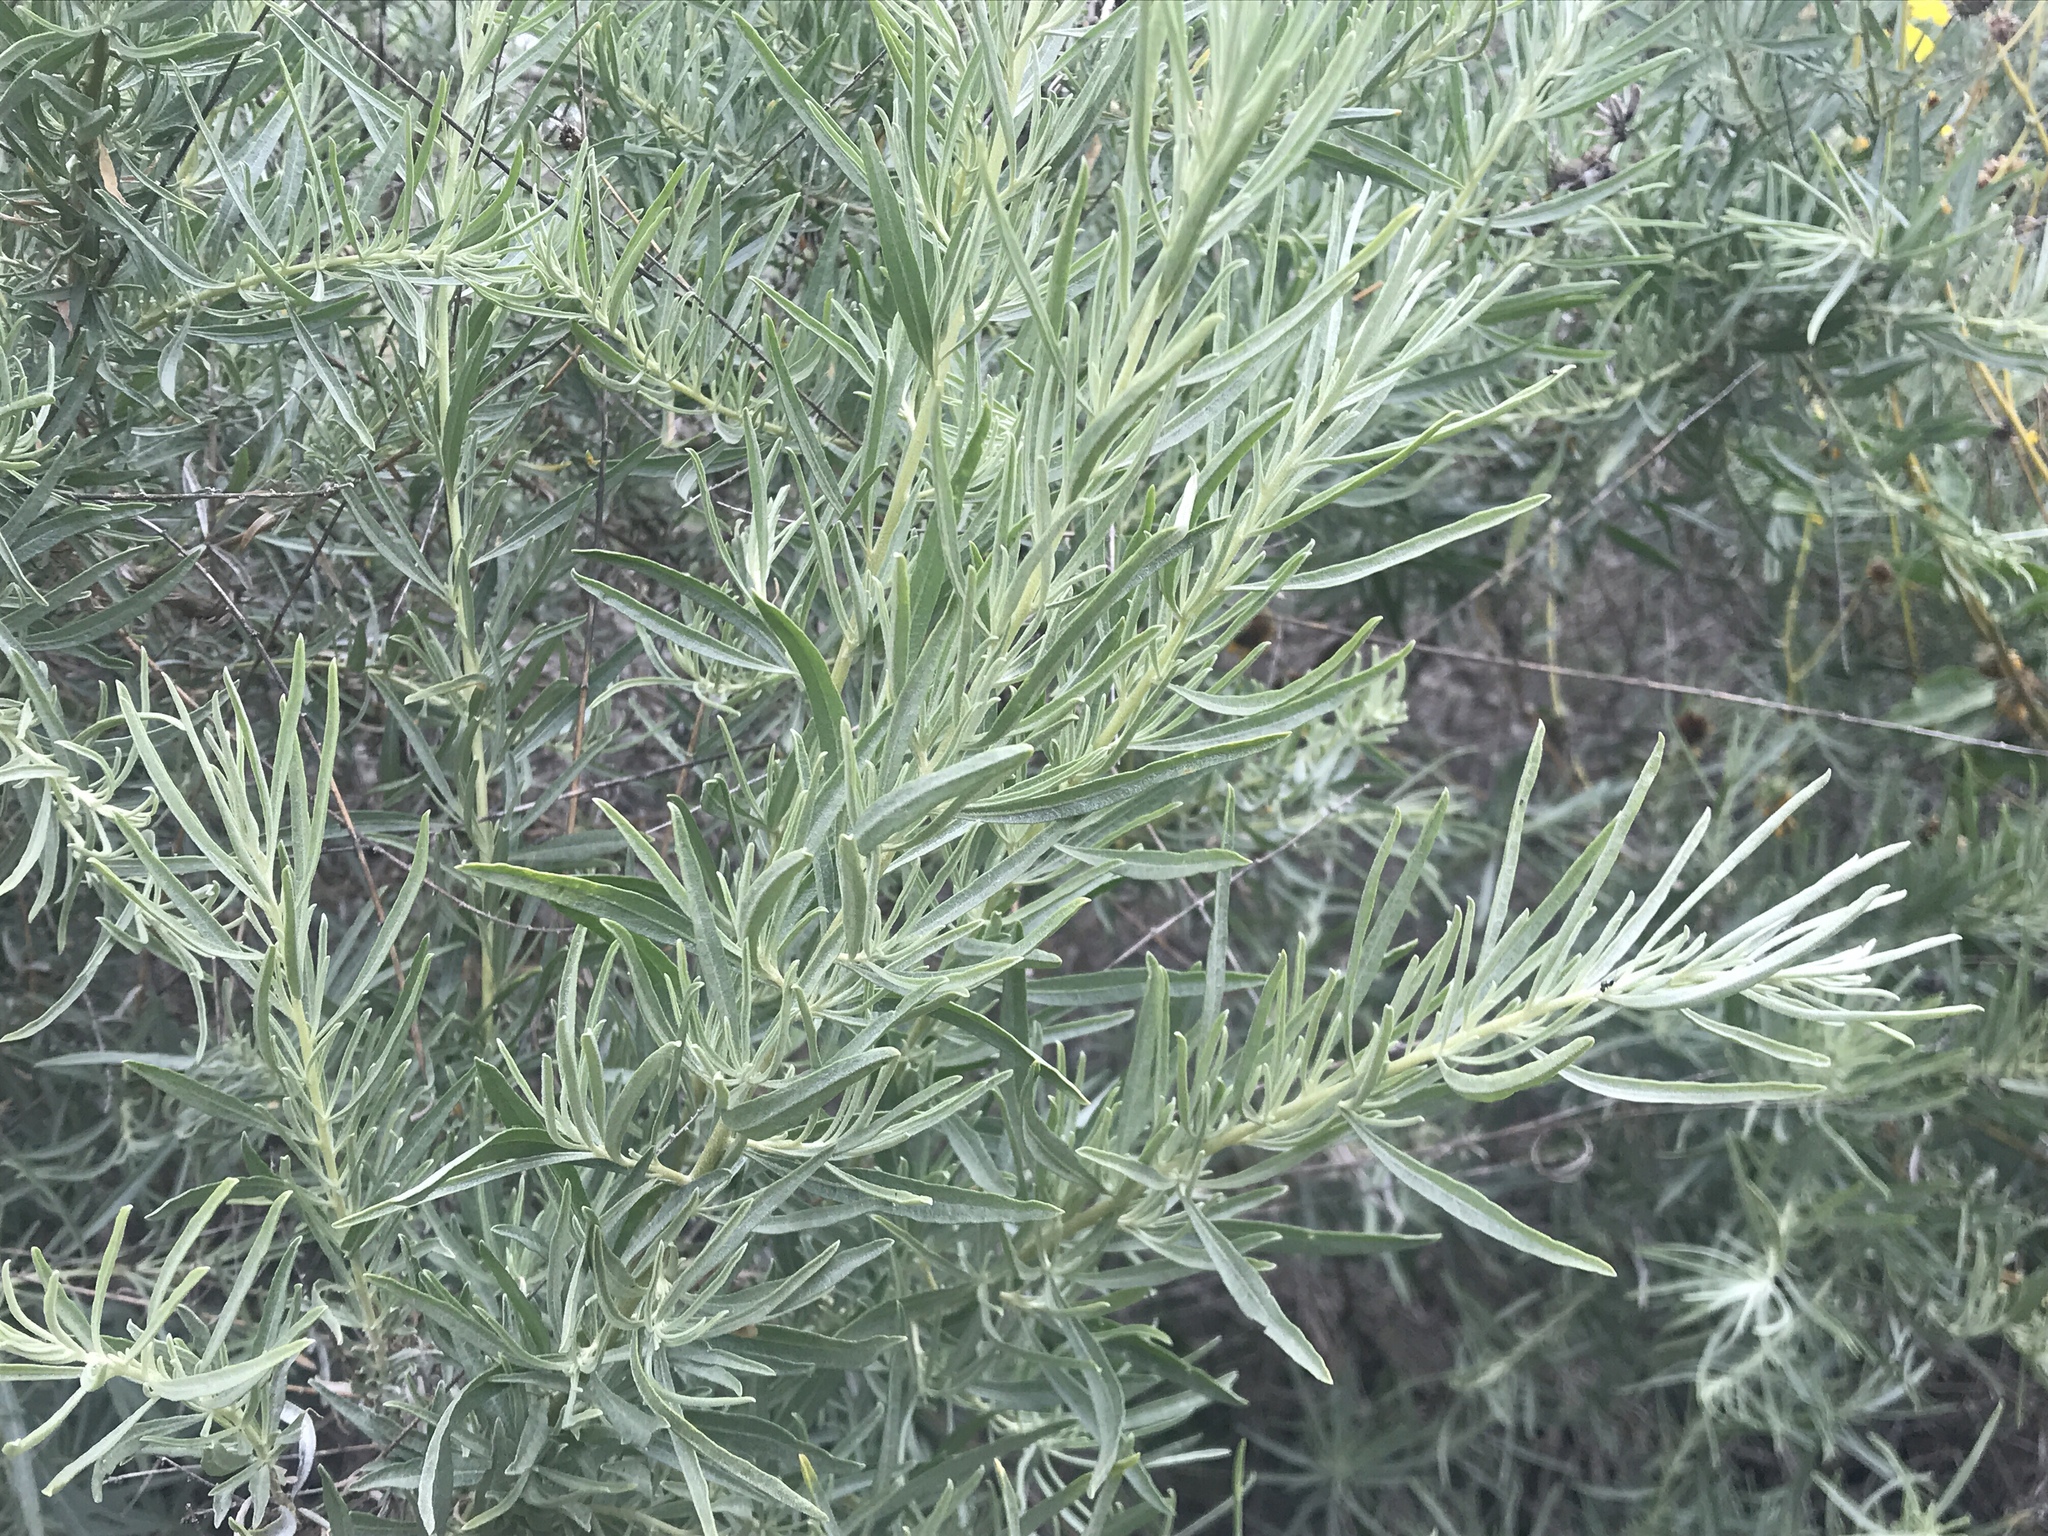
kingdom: Plantae
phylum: Tracheophyta
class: Magnoliopsida
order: Caryophyllales
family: Amaranthaceae
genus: Atriplex
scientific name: Atriplex canescens
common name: Four-wing saltbush
